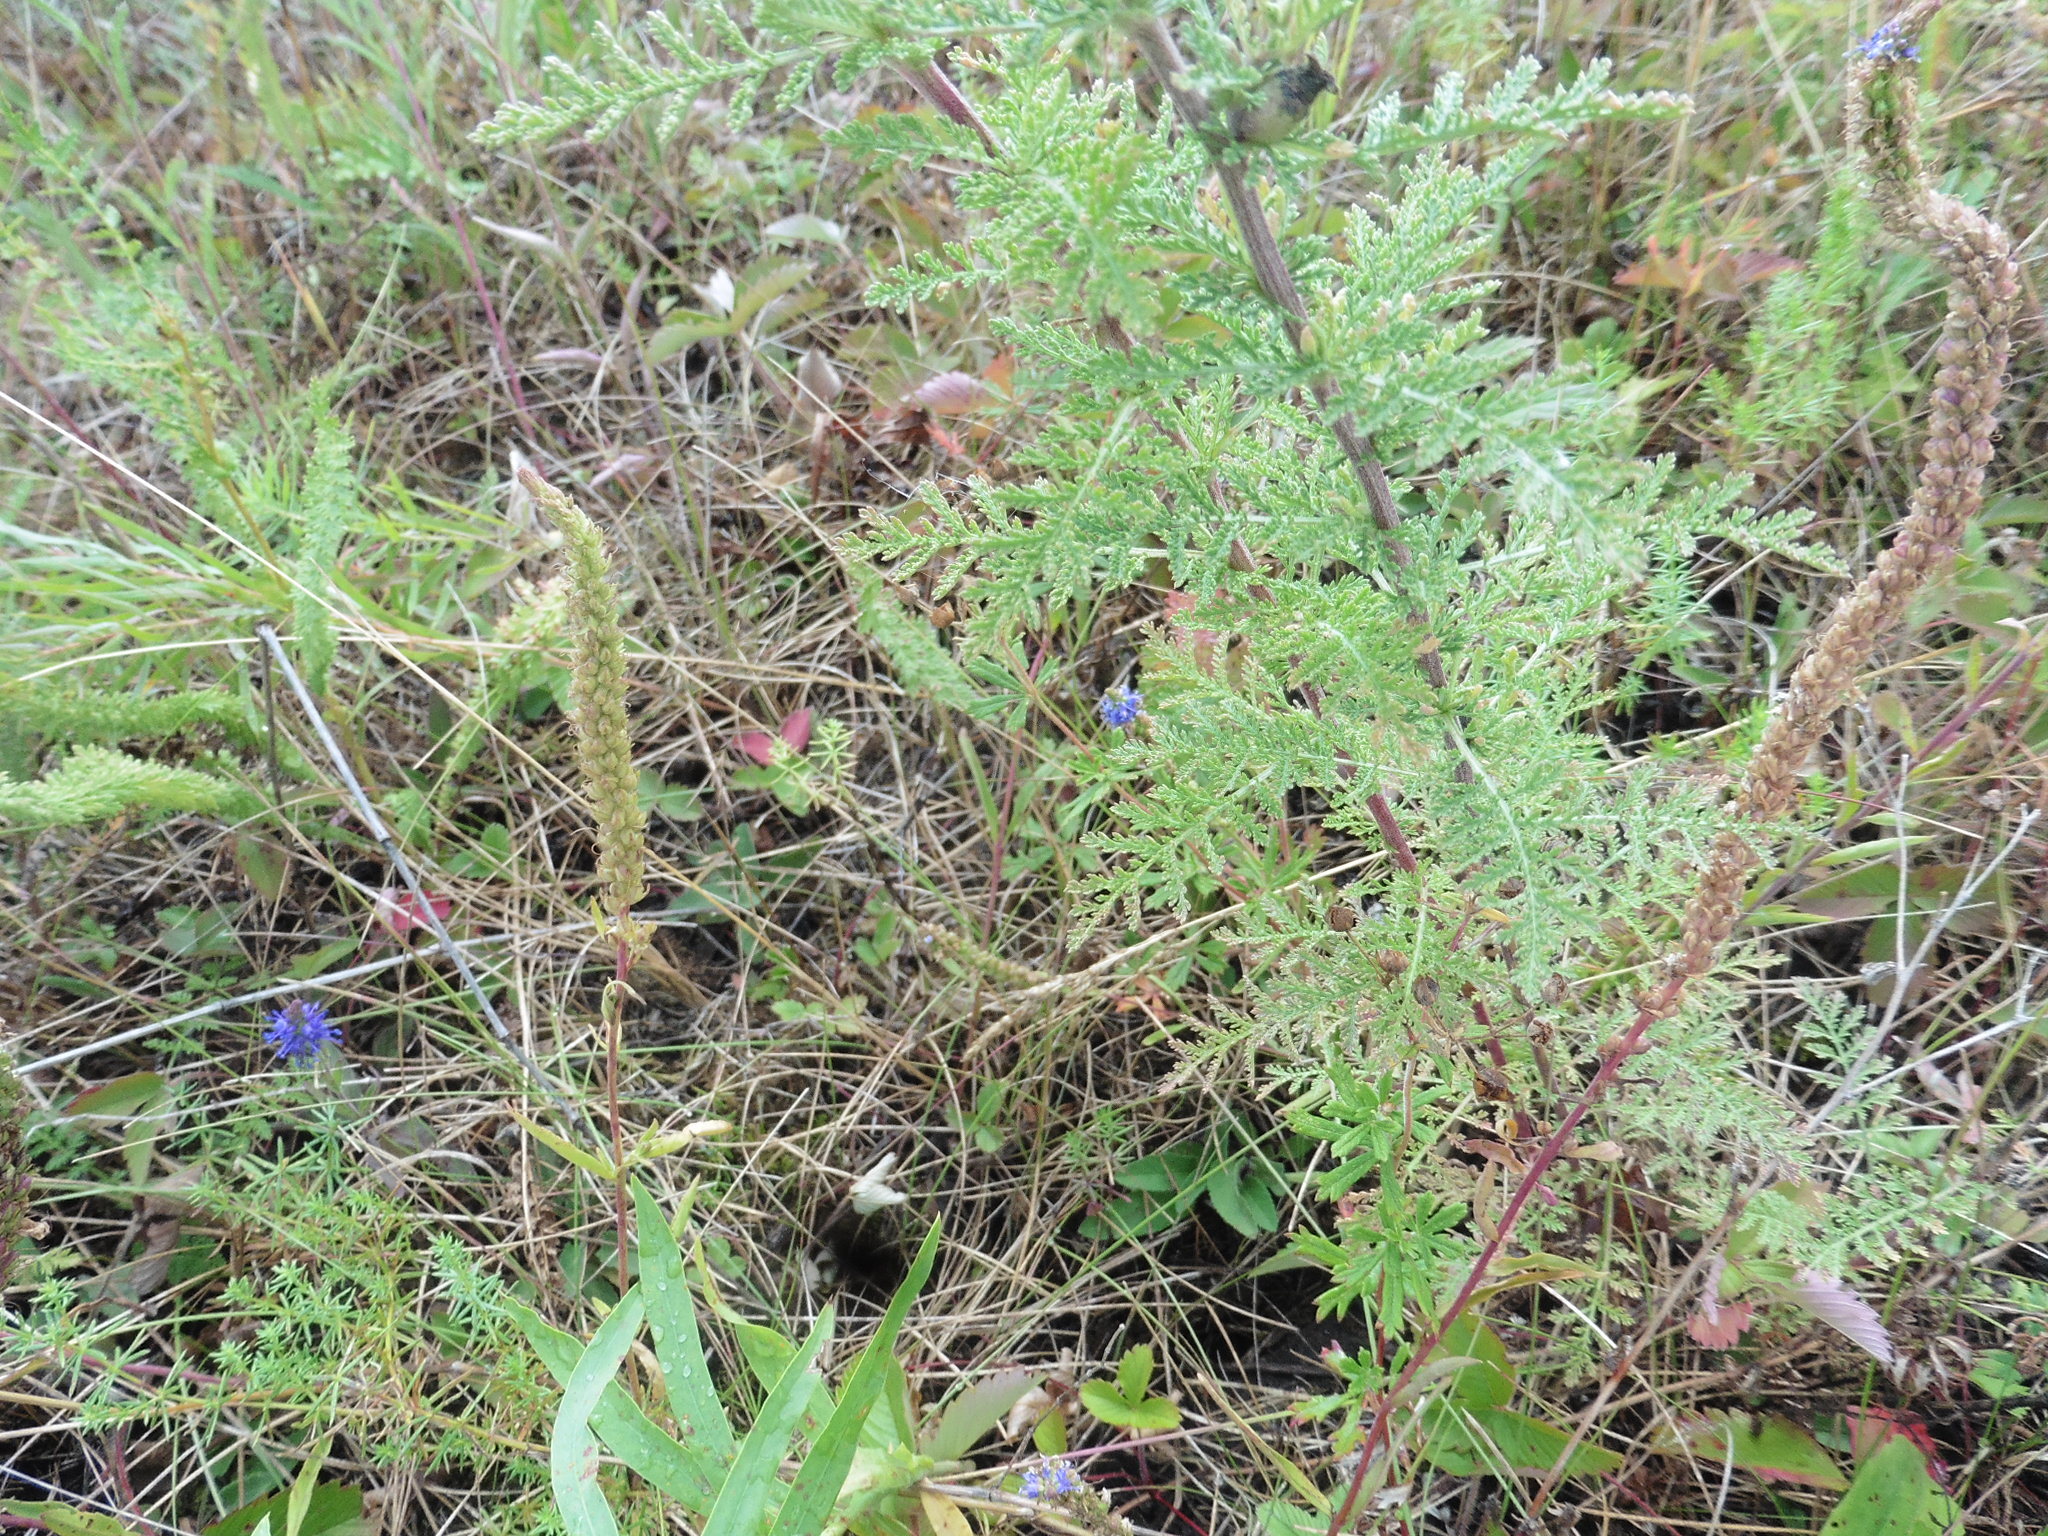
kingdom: Plantae
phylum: Tracheophyta
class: Magnoliopsida
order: Asterales
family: Asteraceae
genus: Achillea
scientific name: Achillea nobilis
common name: Noble yarrow
